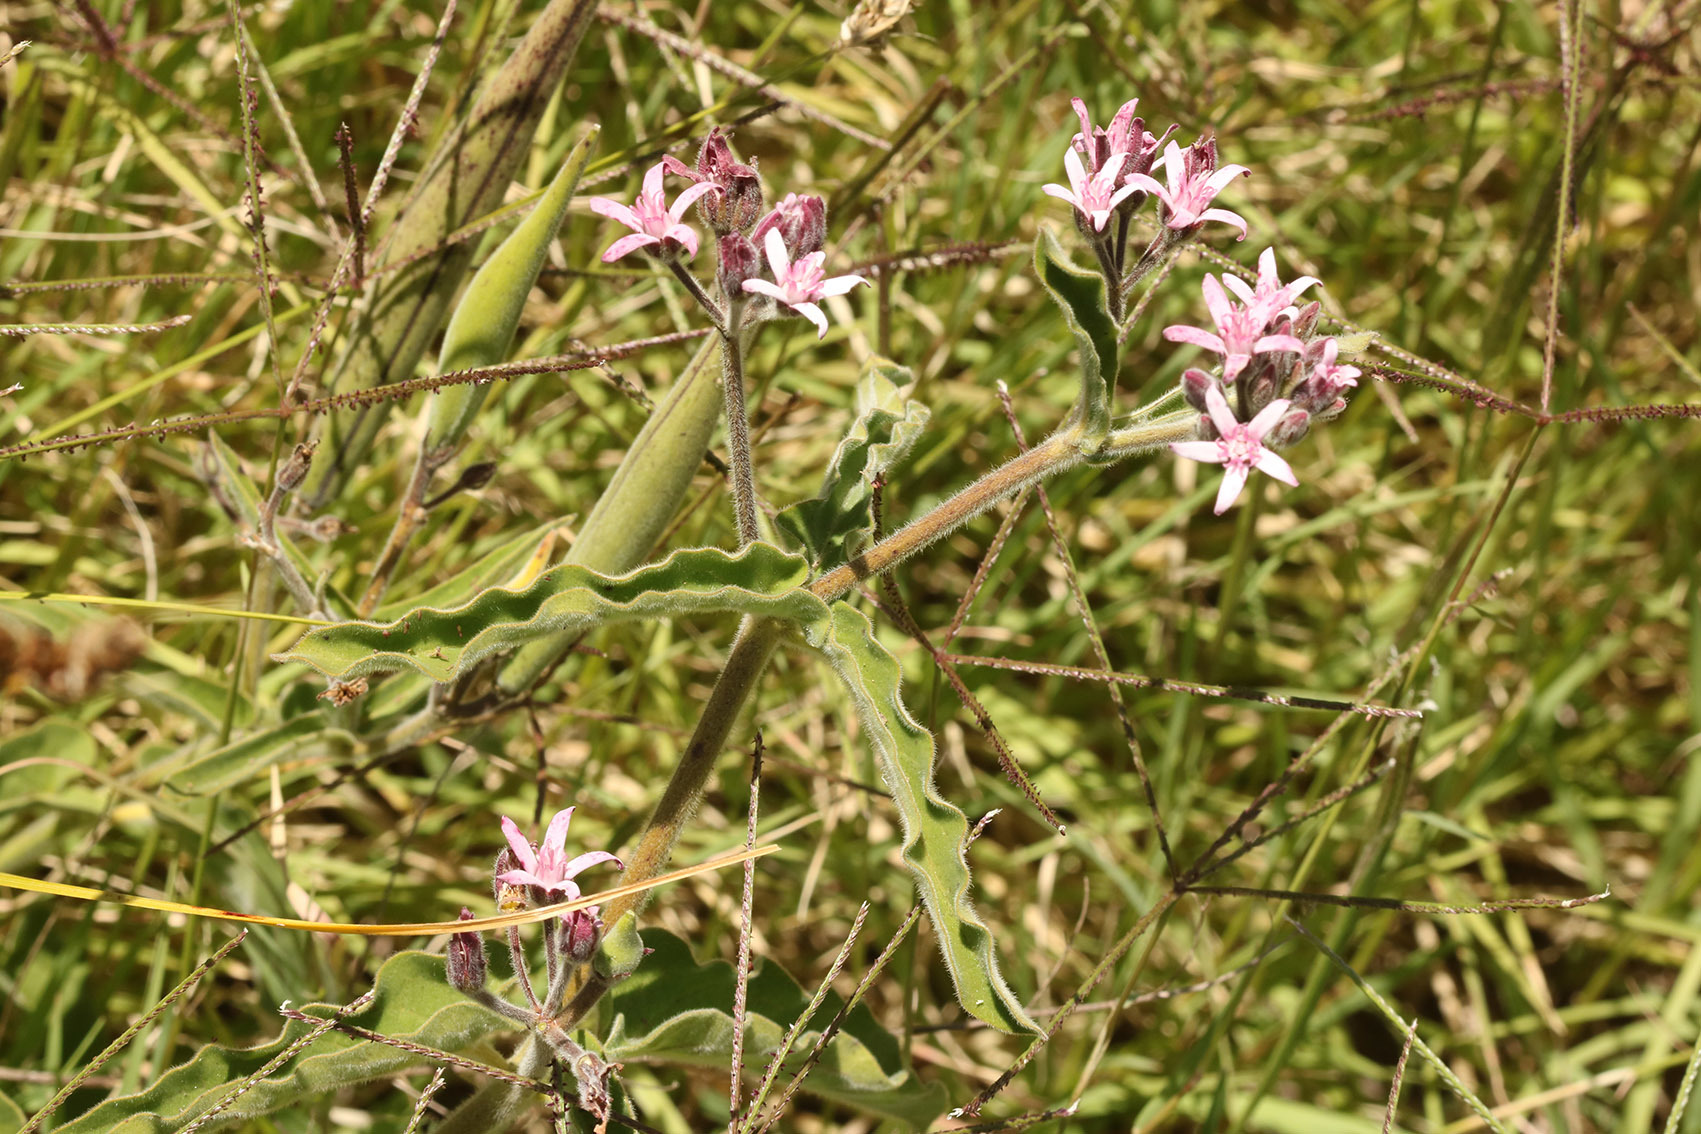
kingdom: Plantae
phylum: Tracheophyta
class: Magnoliopsida
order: Gentianales
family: Apocynaceae
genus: Oxypetalum
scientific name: Oxypetalum solanoides
